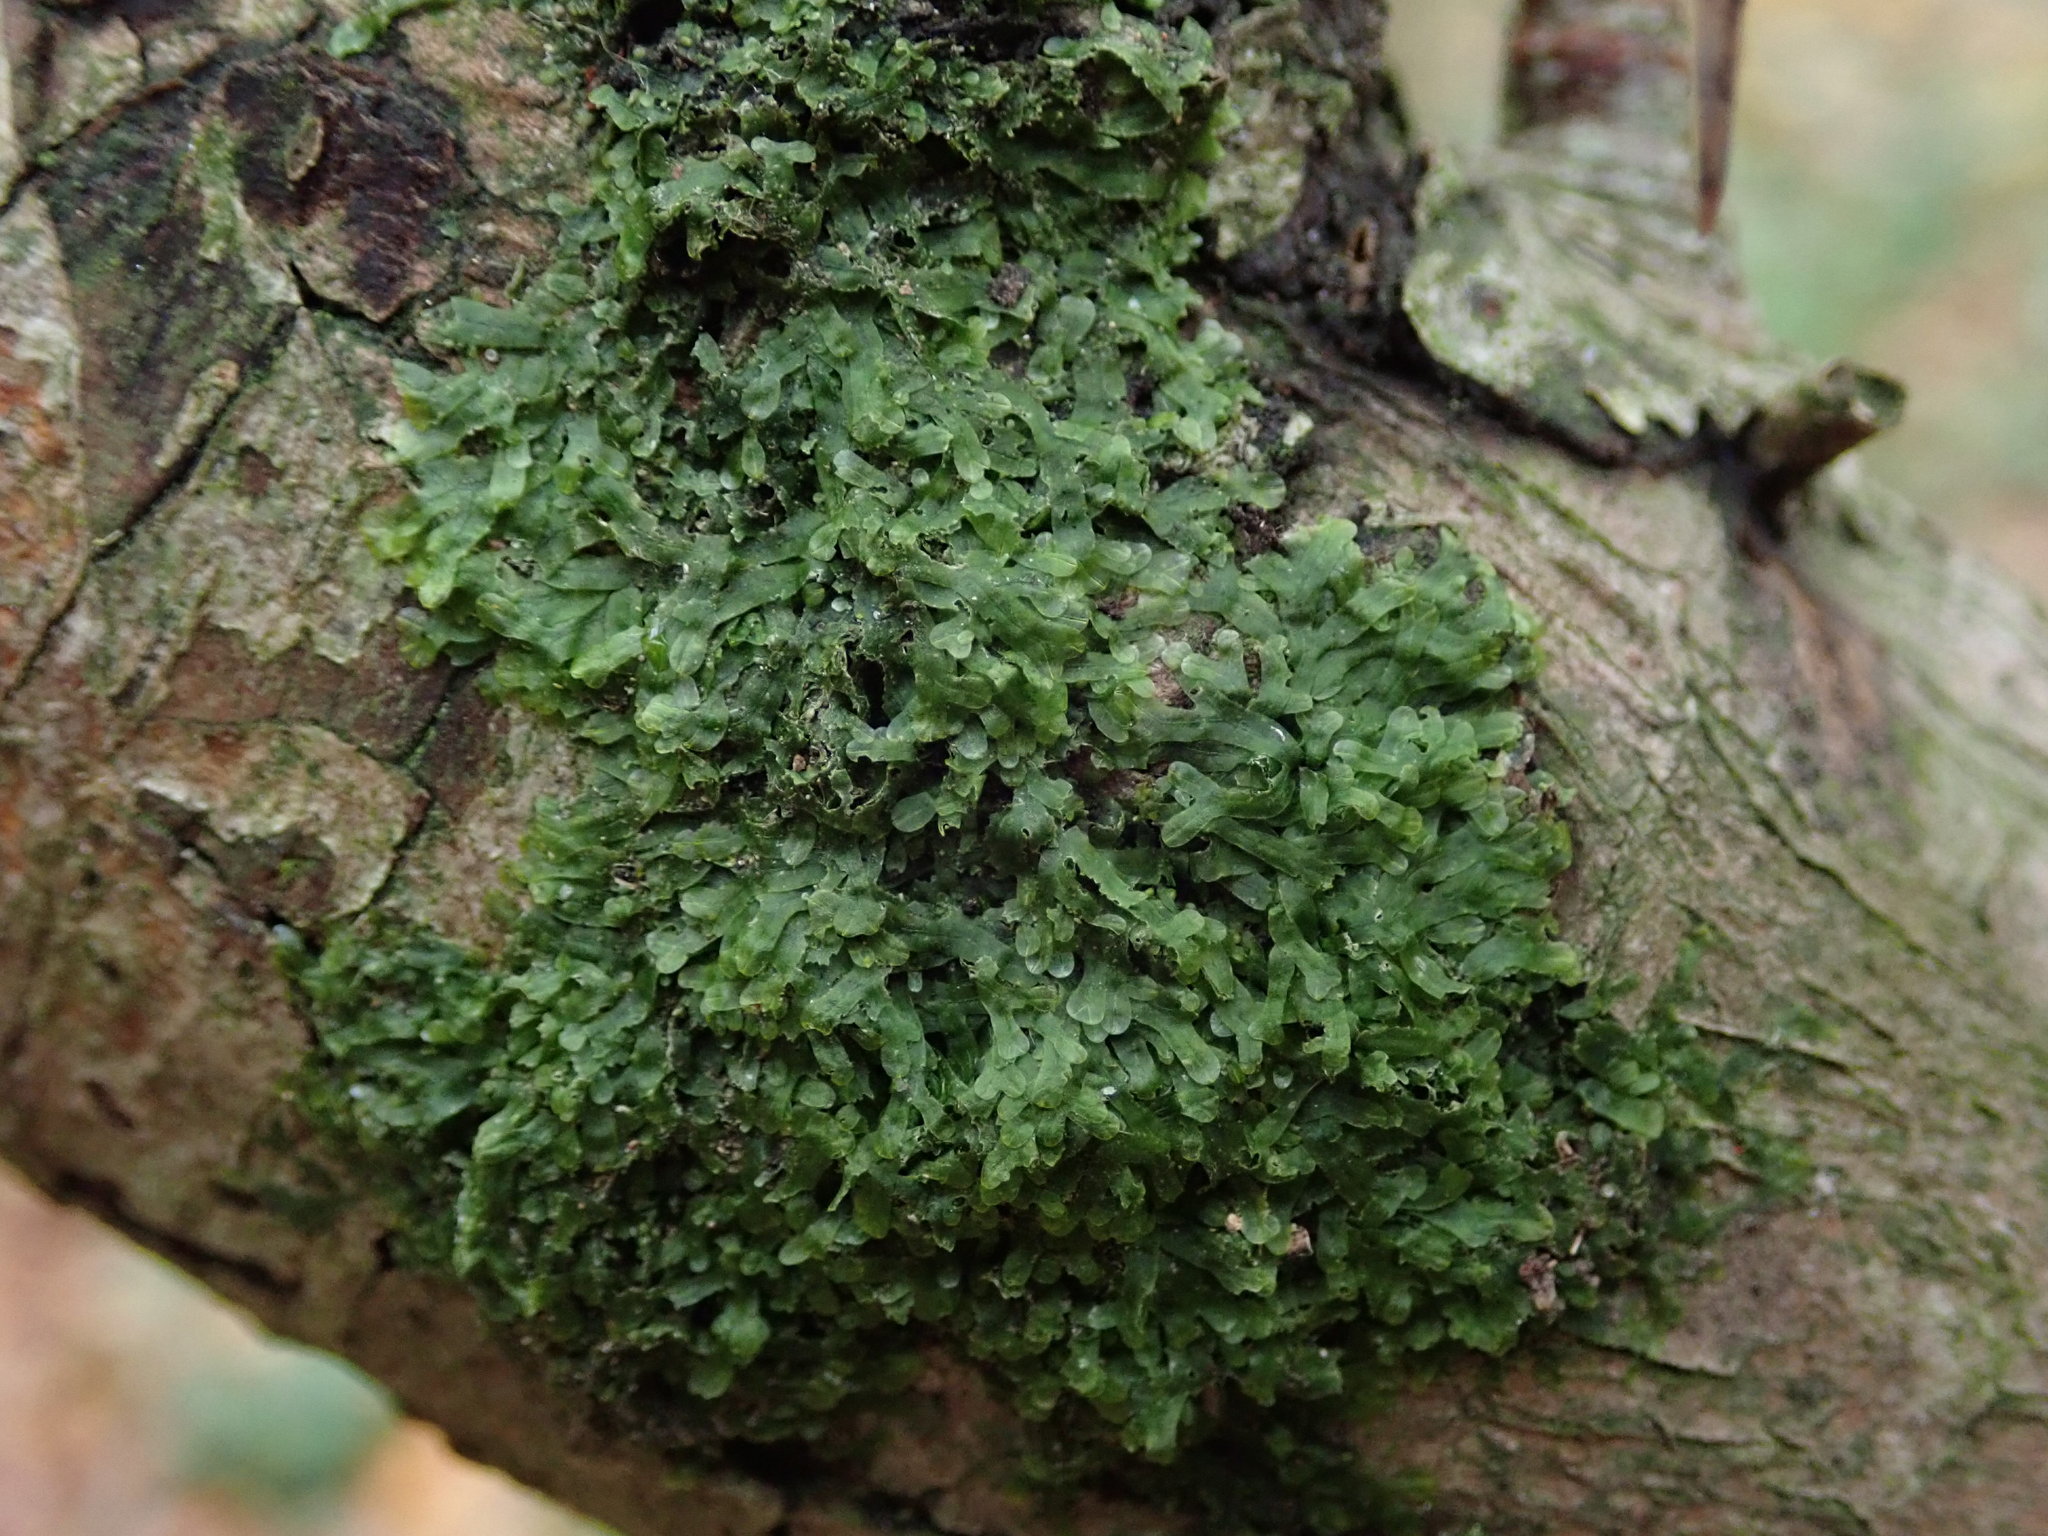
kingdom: Plantae
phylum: Marchantiophyta
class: Jungermanniopsida
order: Metzgeriales
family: Metzgeriaceae
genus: Metzgeria
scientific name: Metzgeria furcata
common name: Forked veilwort
